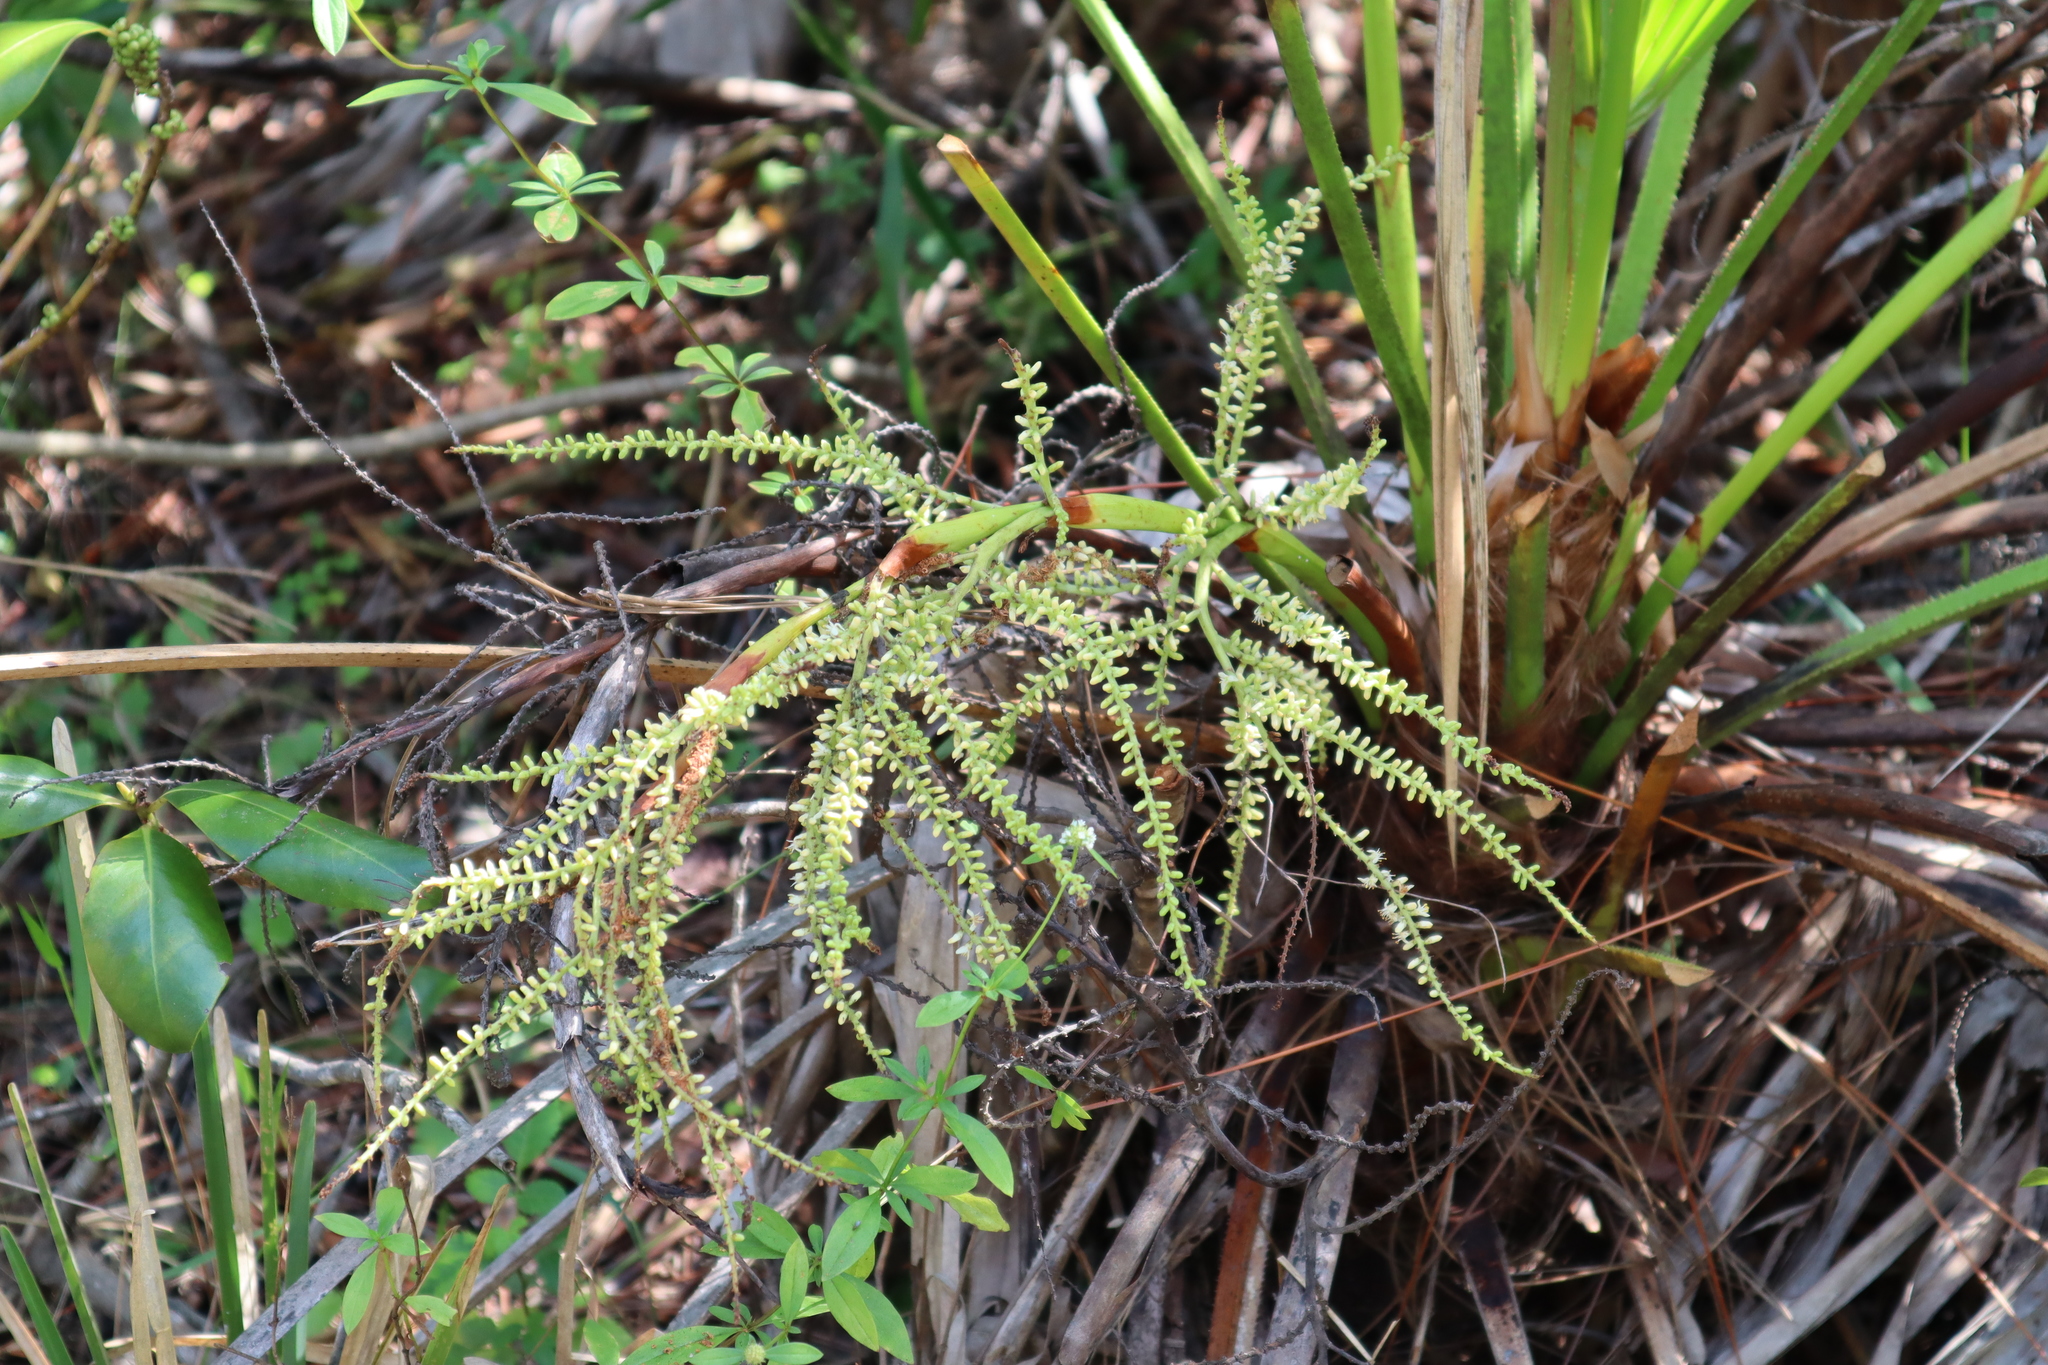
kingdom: Plantae
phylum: Tracheophyta
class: Liliopsida
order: Arecales
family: Arecaceae
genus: Serenoa
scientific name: Serenoa repens
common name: Saw-palmetto
